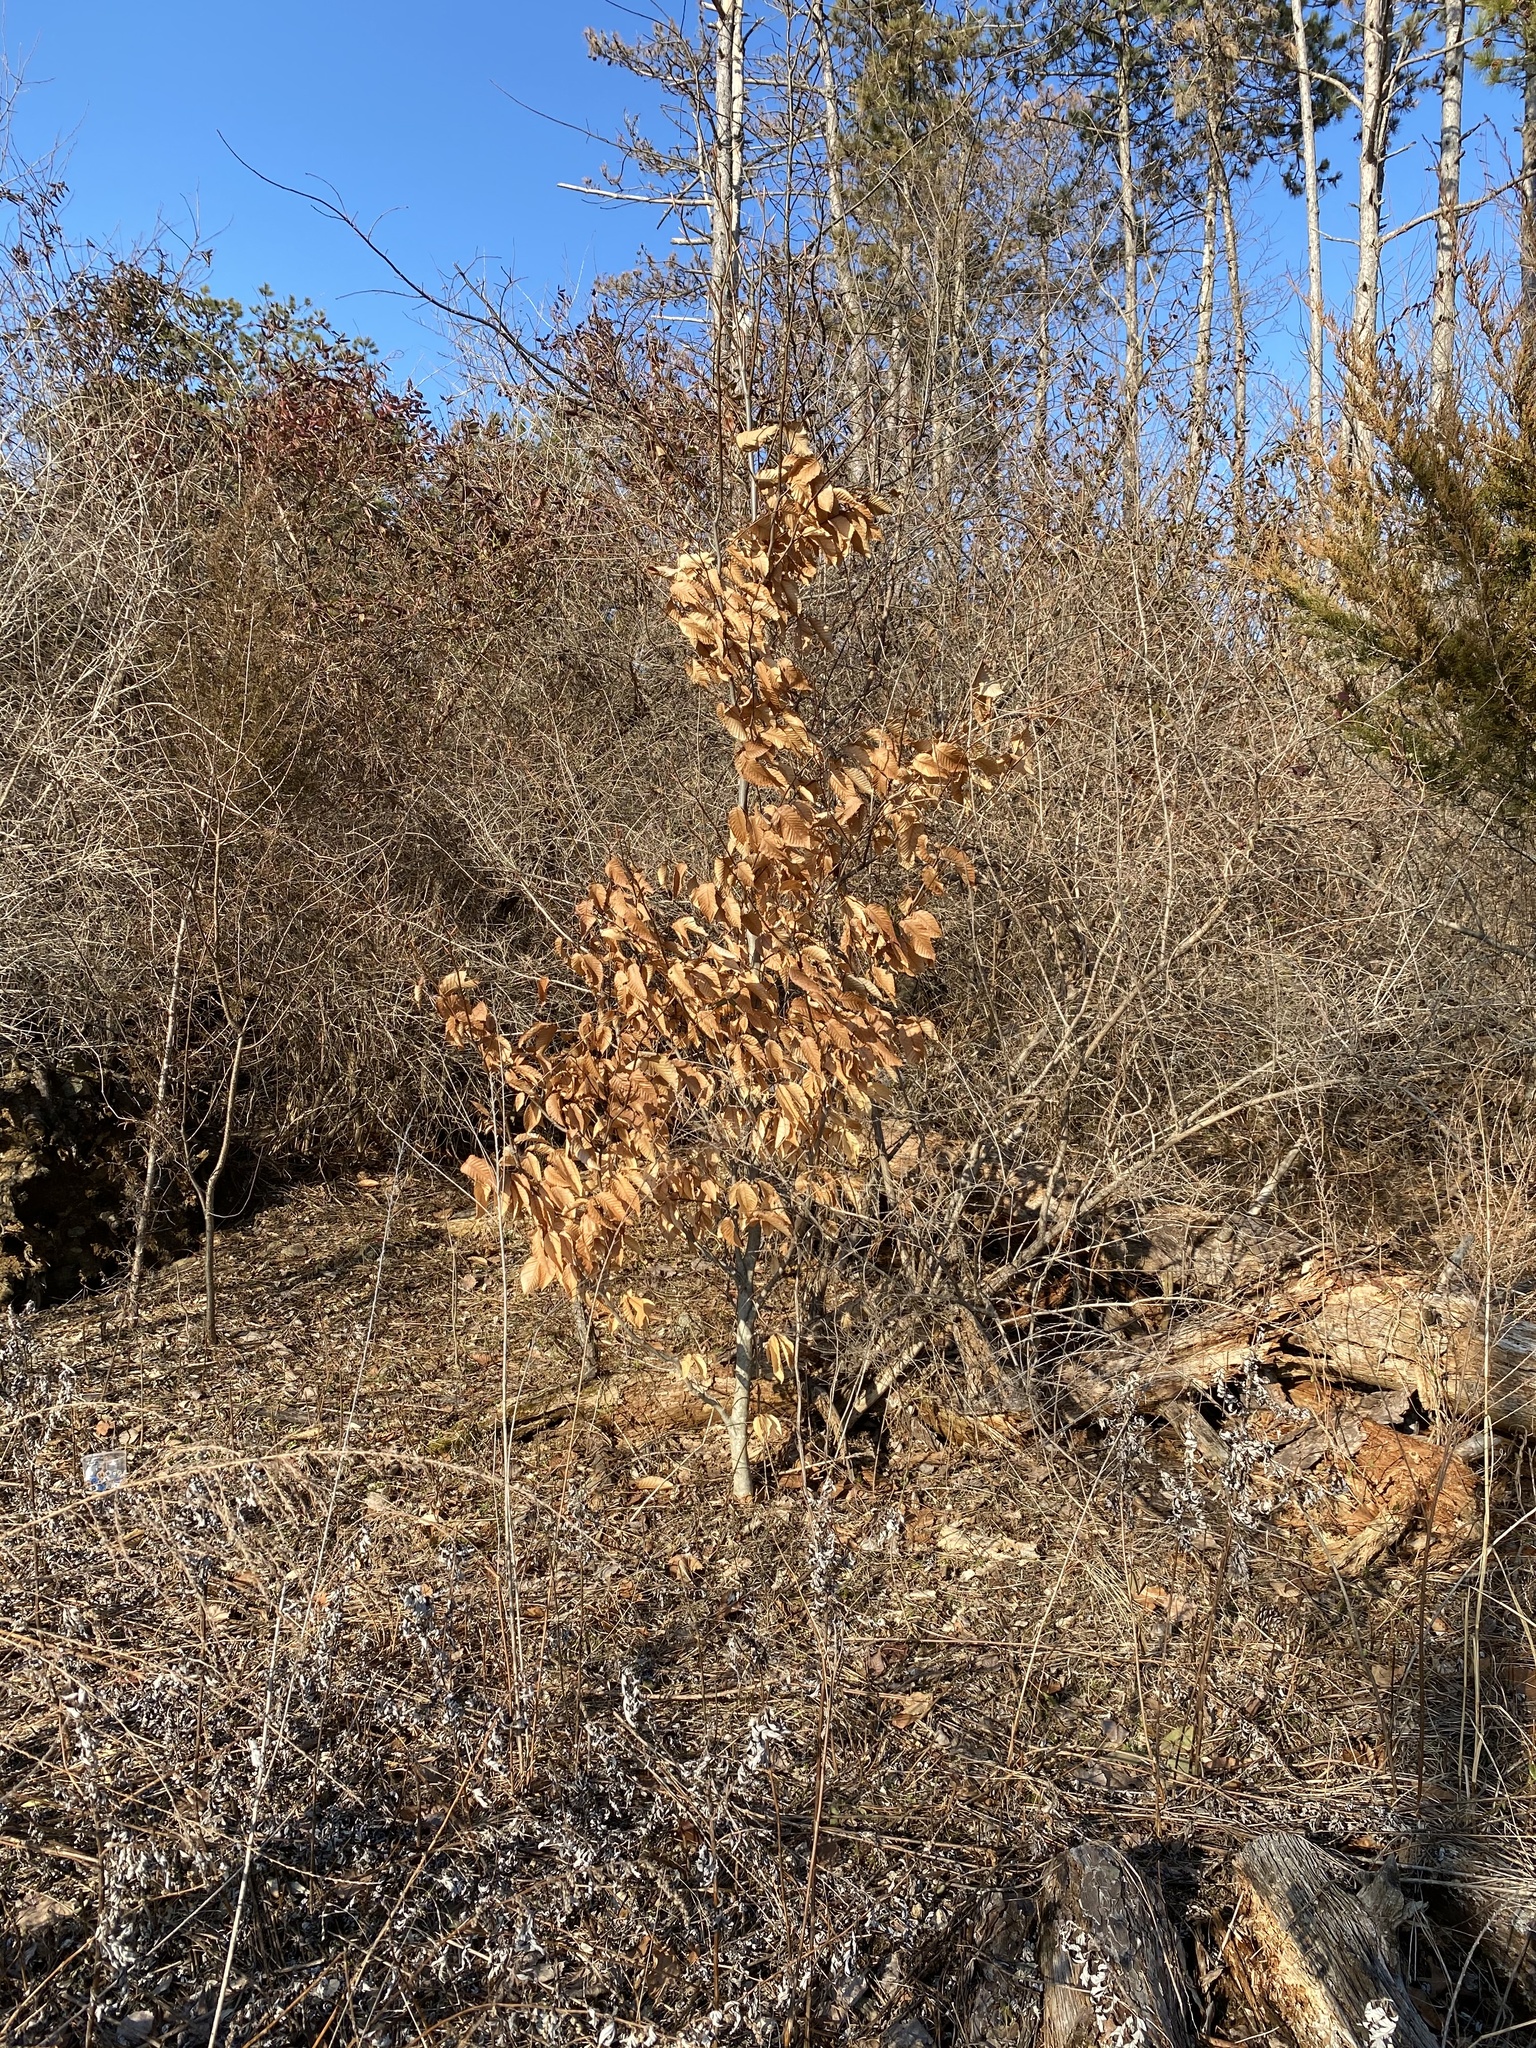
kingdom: Plantae
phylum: Tracheophyta
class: Magnoliopsida
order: Fagales
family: Fagaceae
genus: Fagus
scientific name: Fagus grandifolia
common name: American beech
